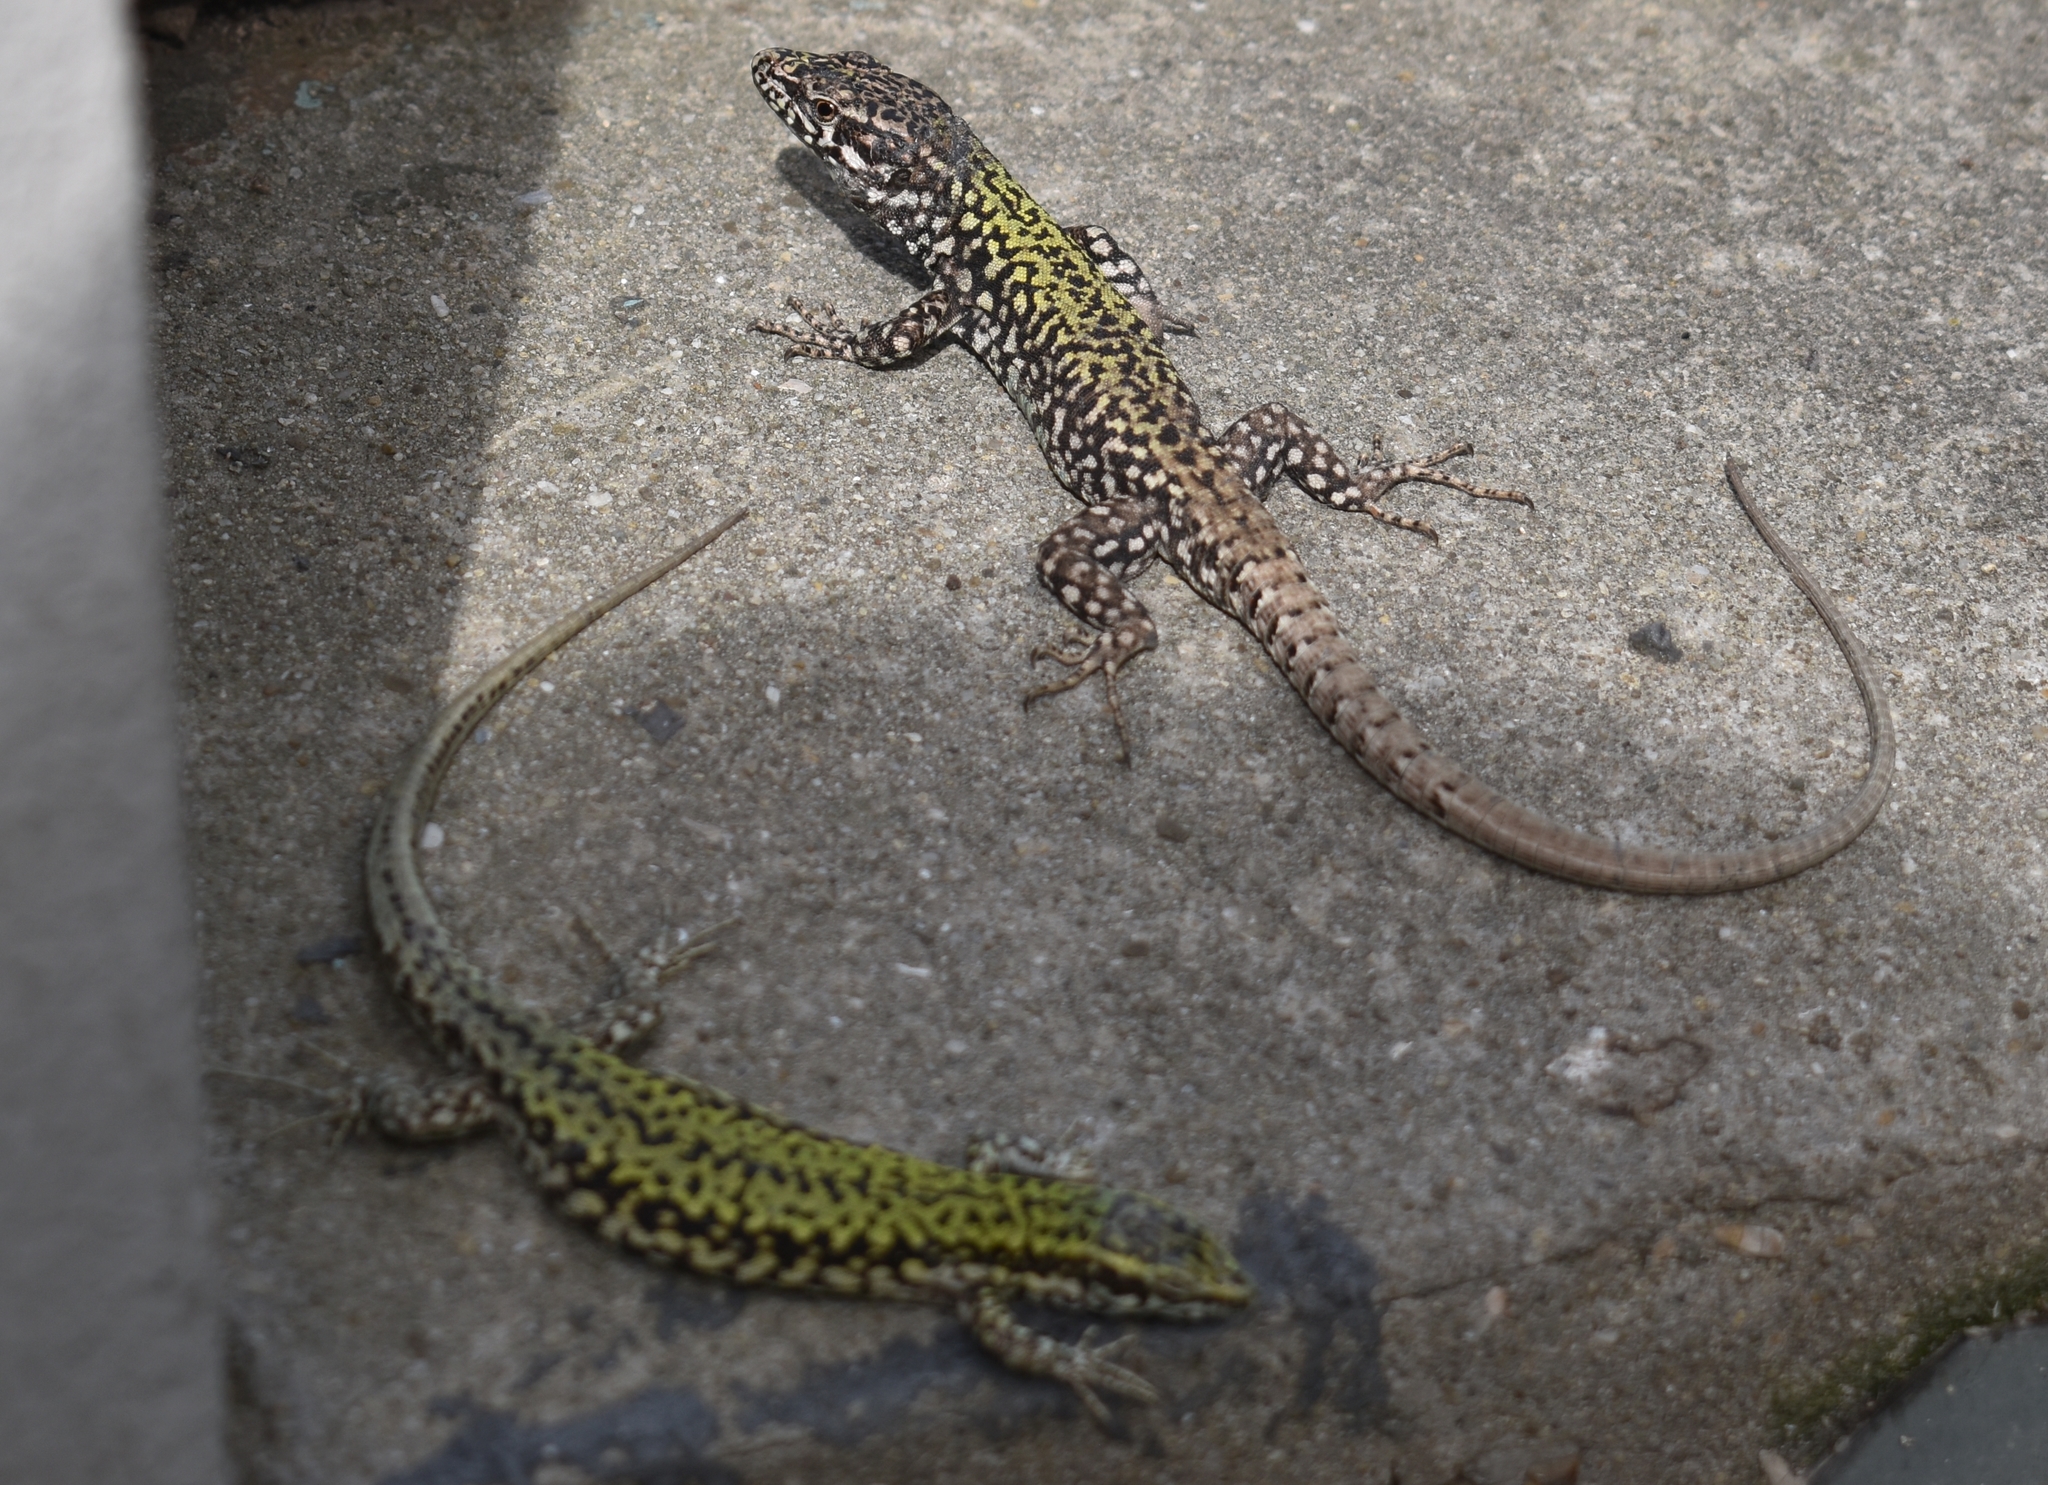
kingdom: Animalia
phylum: Chordata
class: Squamata
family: Lacertidae
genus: Podarcis
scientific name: Podarcis muralis
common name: Common wall lizard
